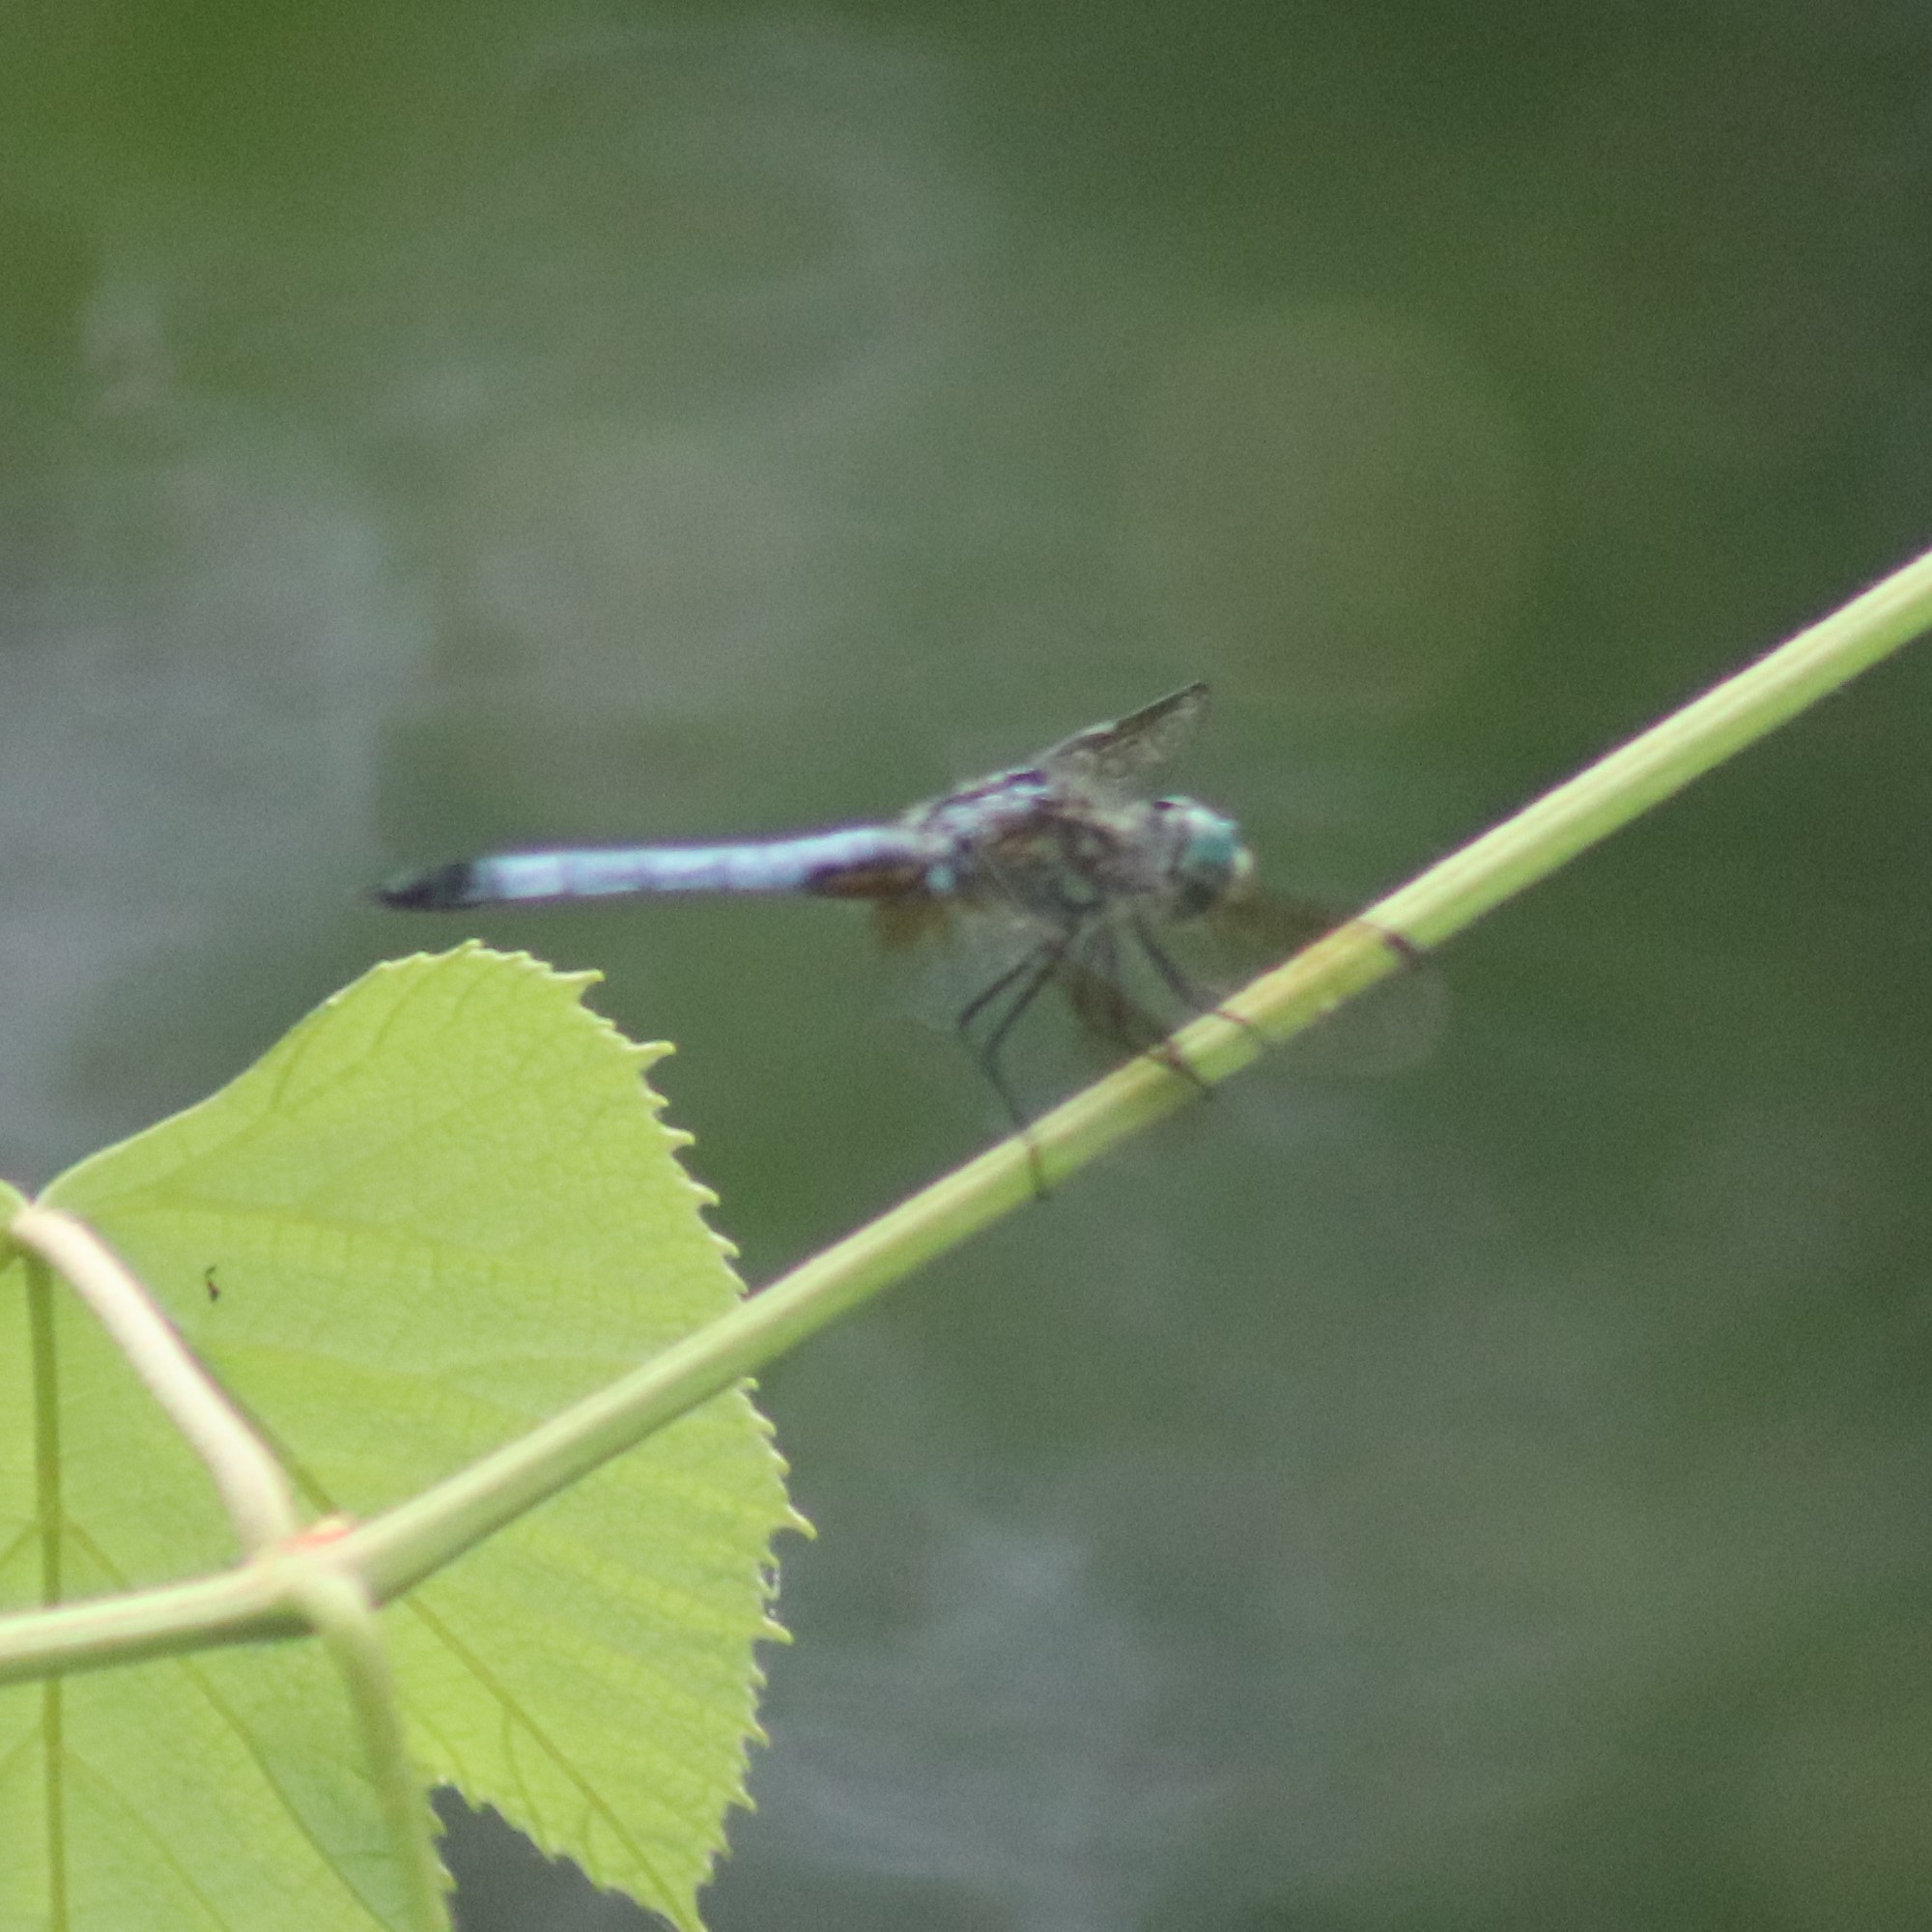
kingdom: Animalia
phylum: Arthropoda
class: Insecta
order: Odonata
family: Libellulidae
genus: Pachydiplax
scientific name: Pachydiplax longipennis
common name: Blue dasher
